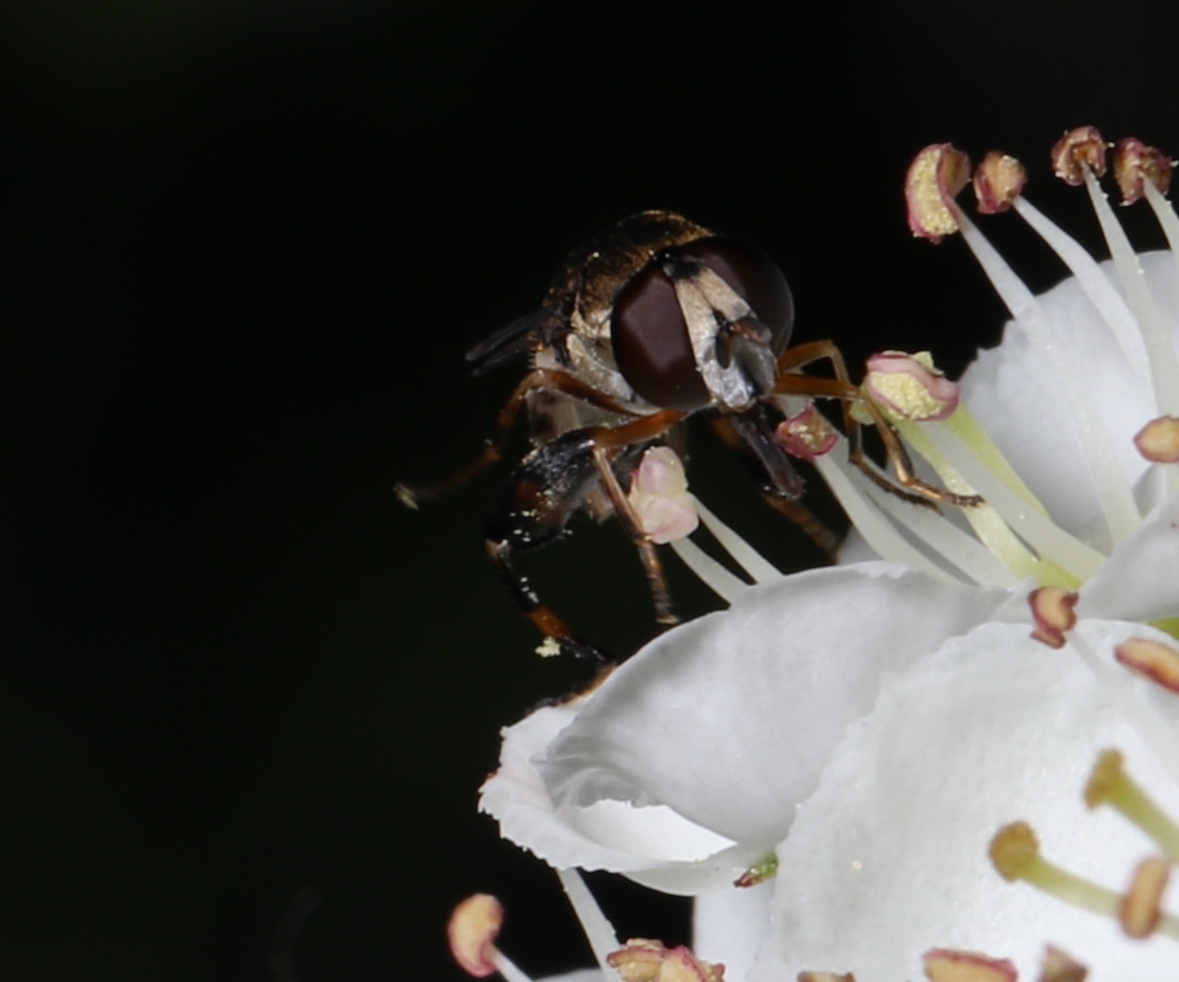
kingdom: Animalia
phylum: Arthropoda
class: Insecta
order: Diptera
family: Syrphidae
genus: Syritta
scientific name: Syritta pipiens
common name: Hover fly
